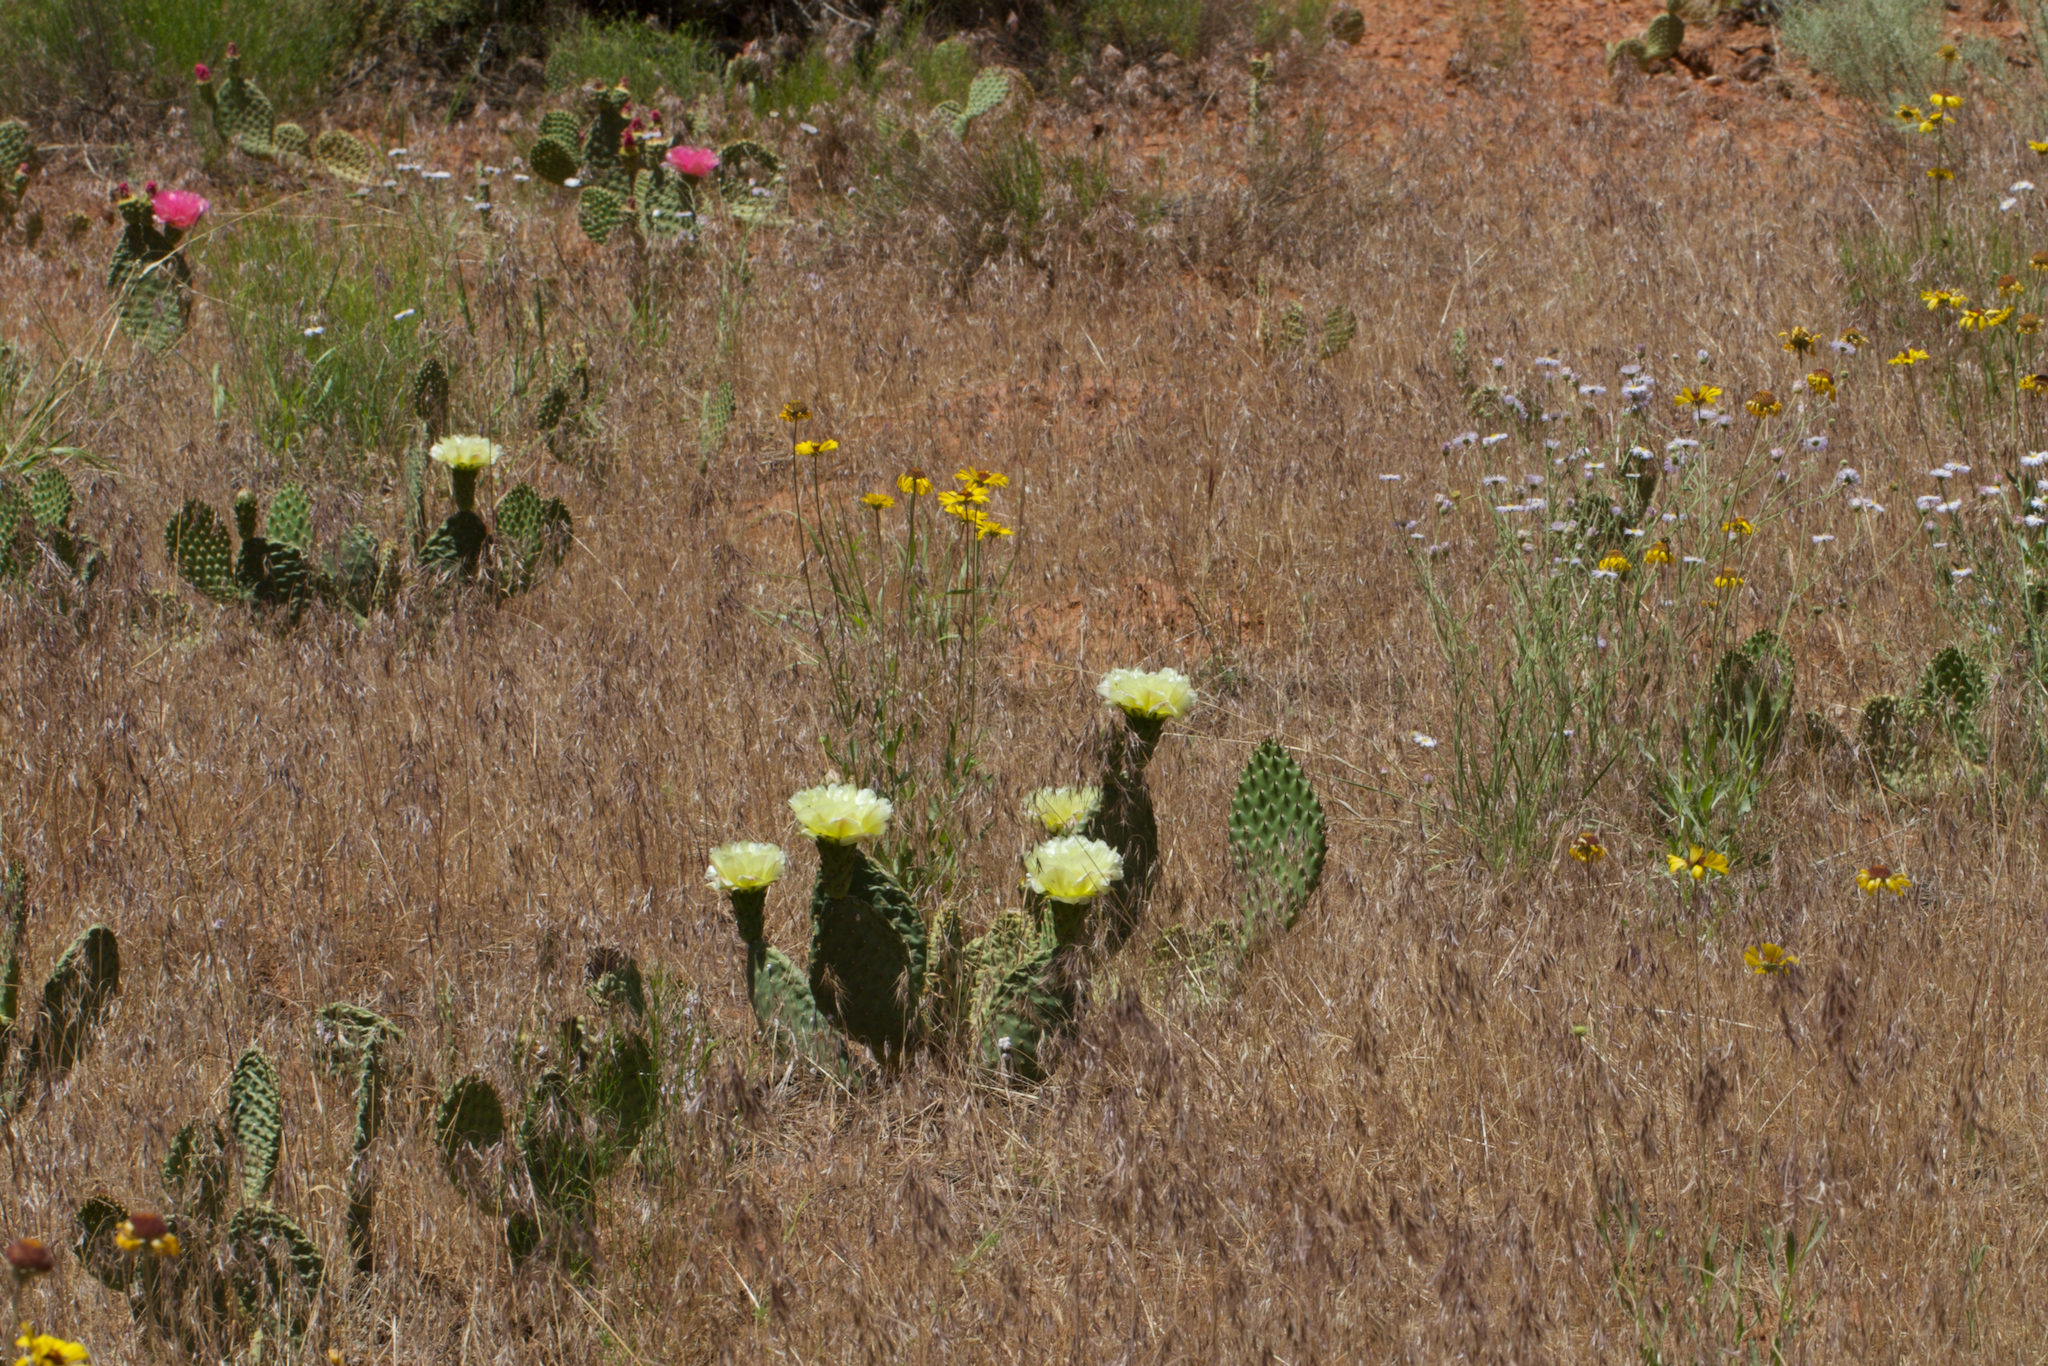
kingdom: Plantae
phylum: Tracheophyta
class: Magnoliopsida
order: Caryophyllales
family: Cactaceae
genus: Opuntia
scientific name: Opuntia aurea
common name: Golden prickly-pear
